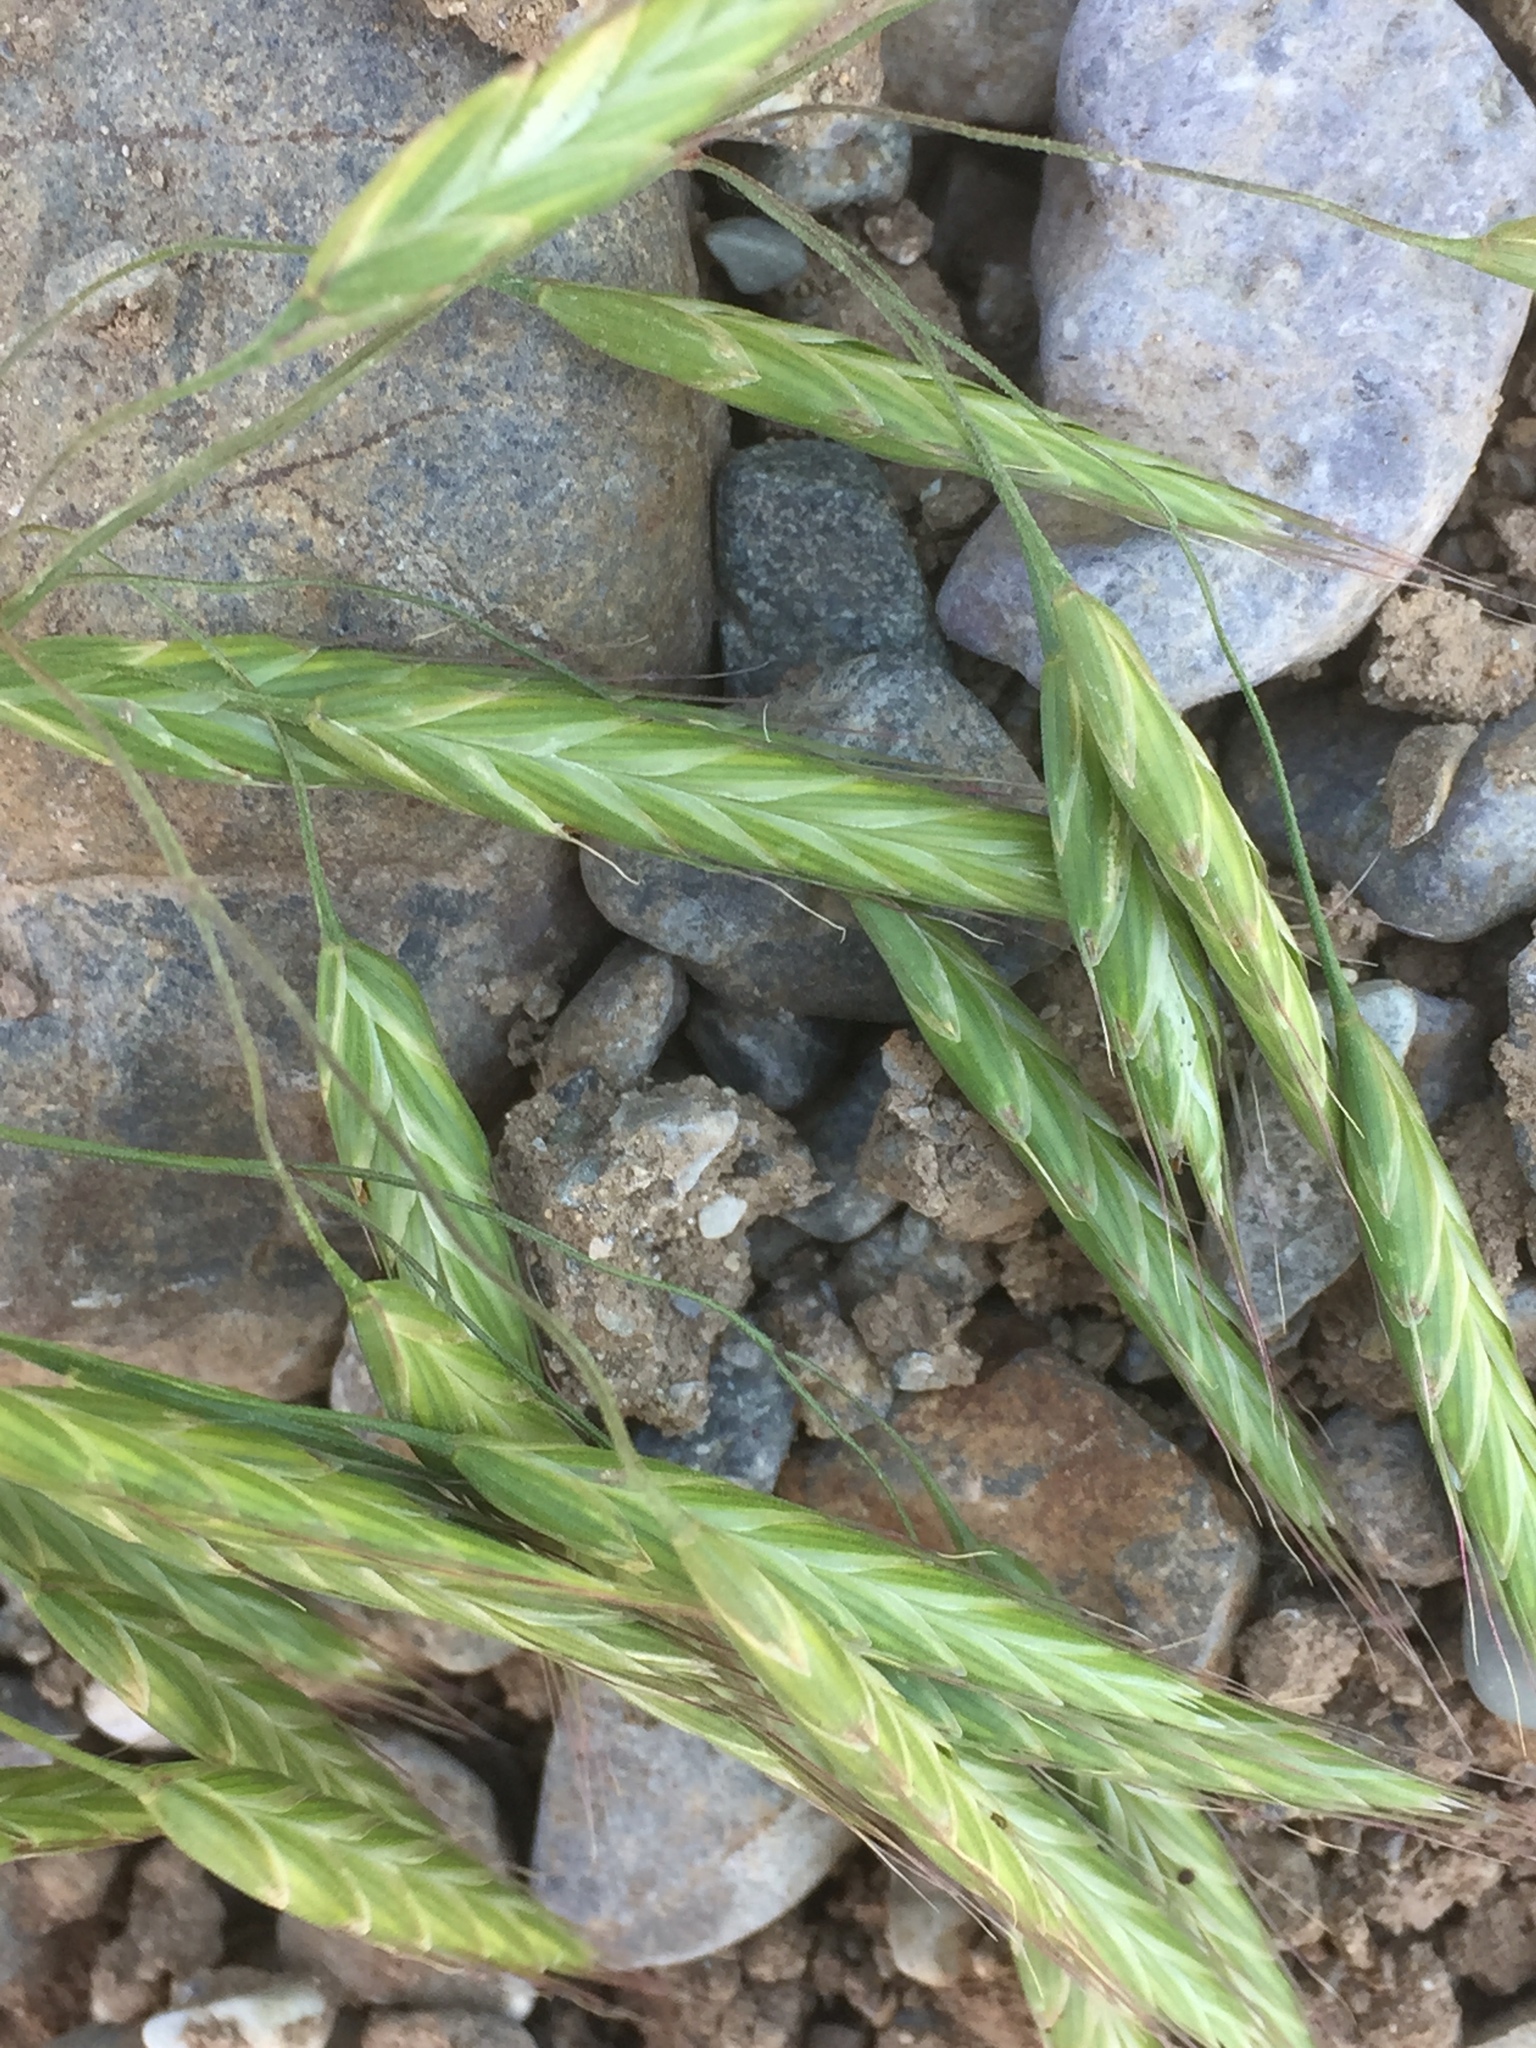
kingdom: Plantae
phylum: Tracheophyta
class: Liliopsida
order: Poales
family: Poaceae
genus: Bromus
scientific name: Bromus catharticus
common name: Rescuegrass
